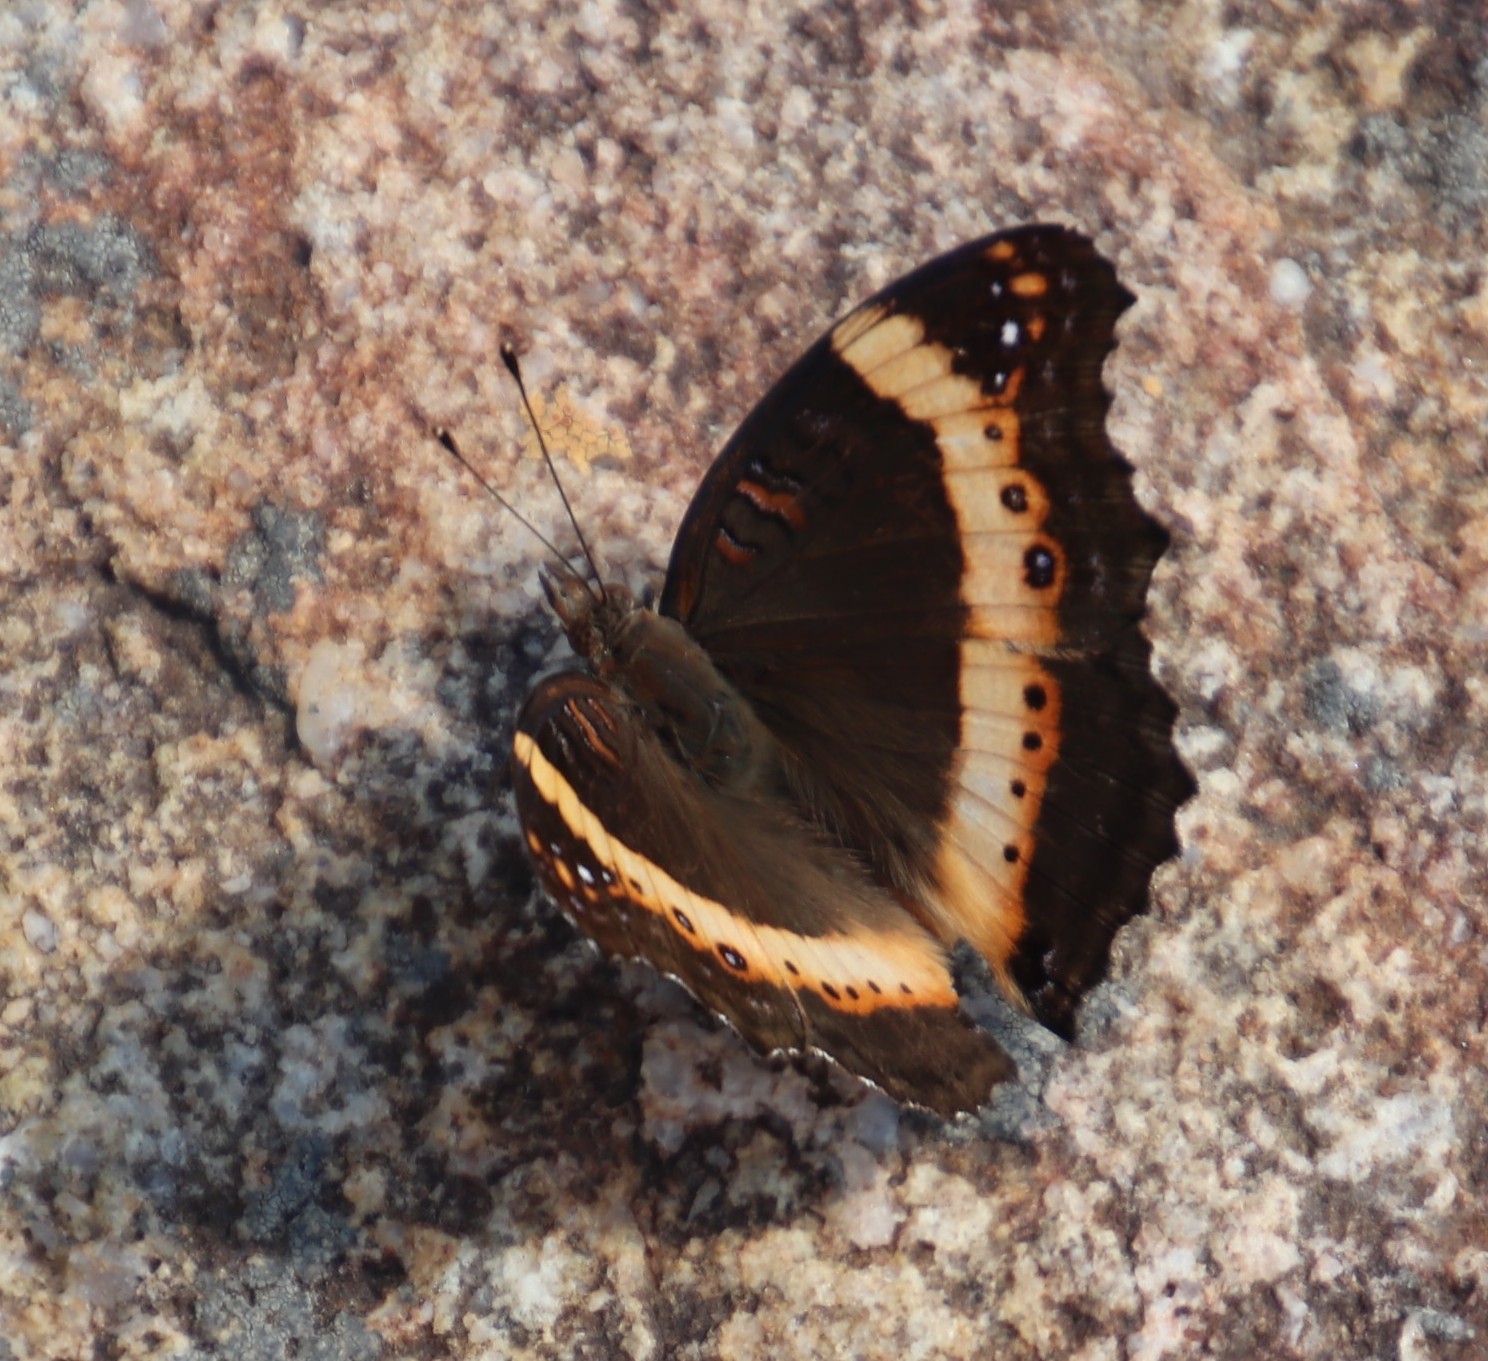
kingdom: Animalia
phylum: Arthropoda
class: Insecta
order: Lepidoptera
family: Nymphalidae
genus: Junonia
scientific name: Junonia archesia
